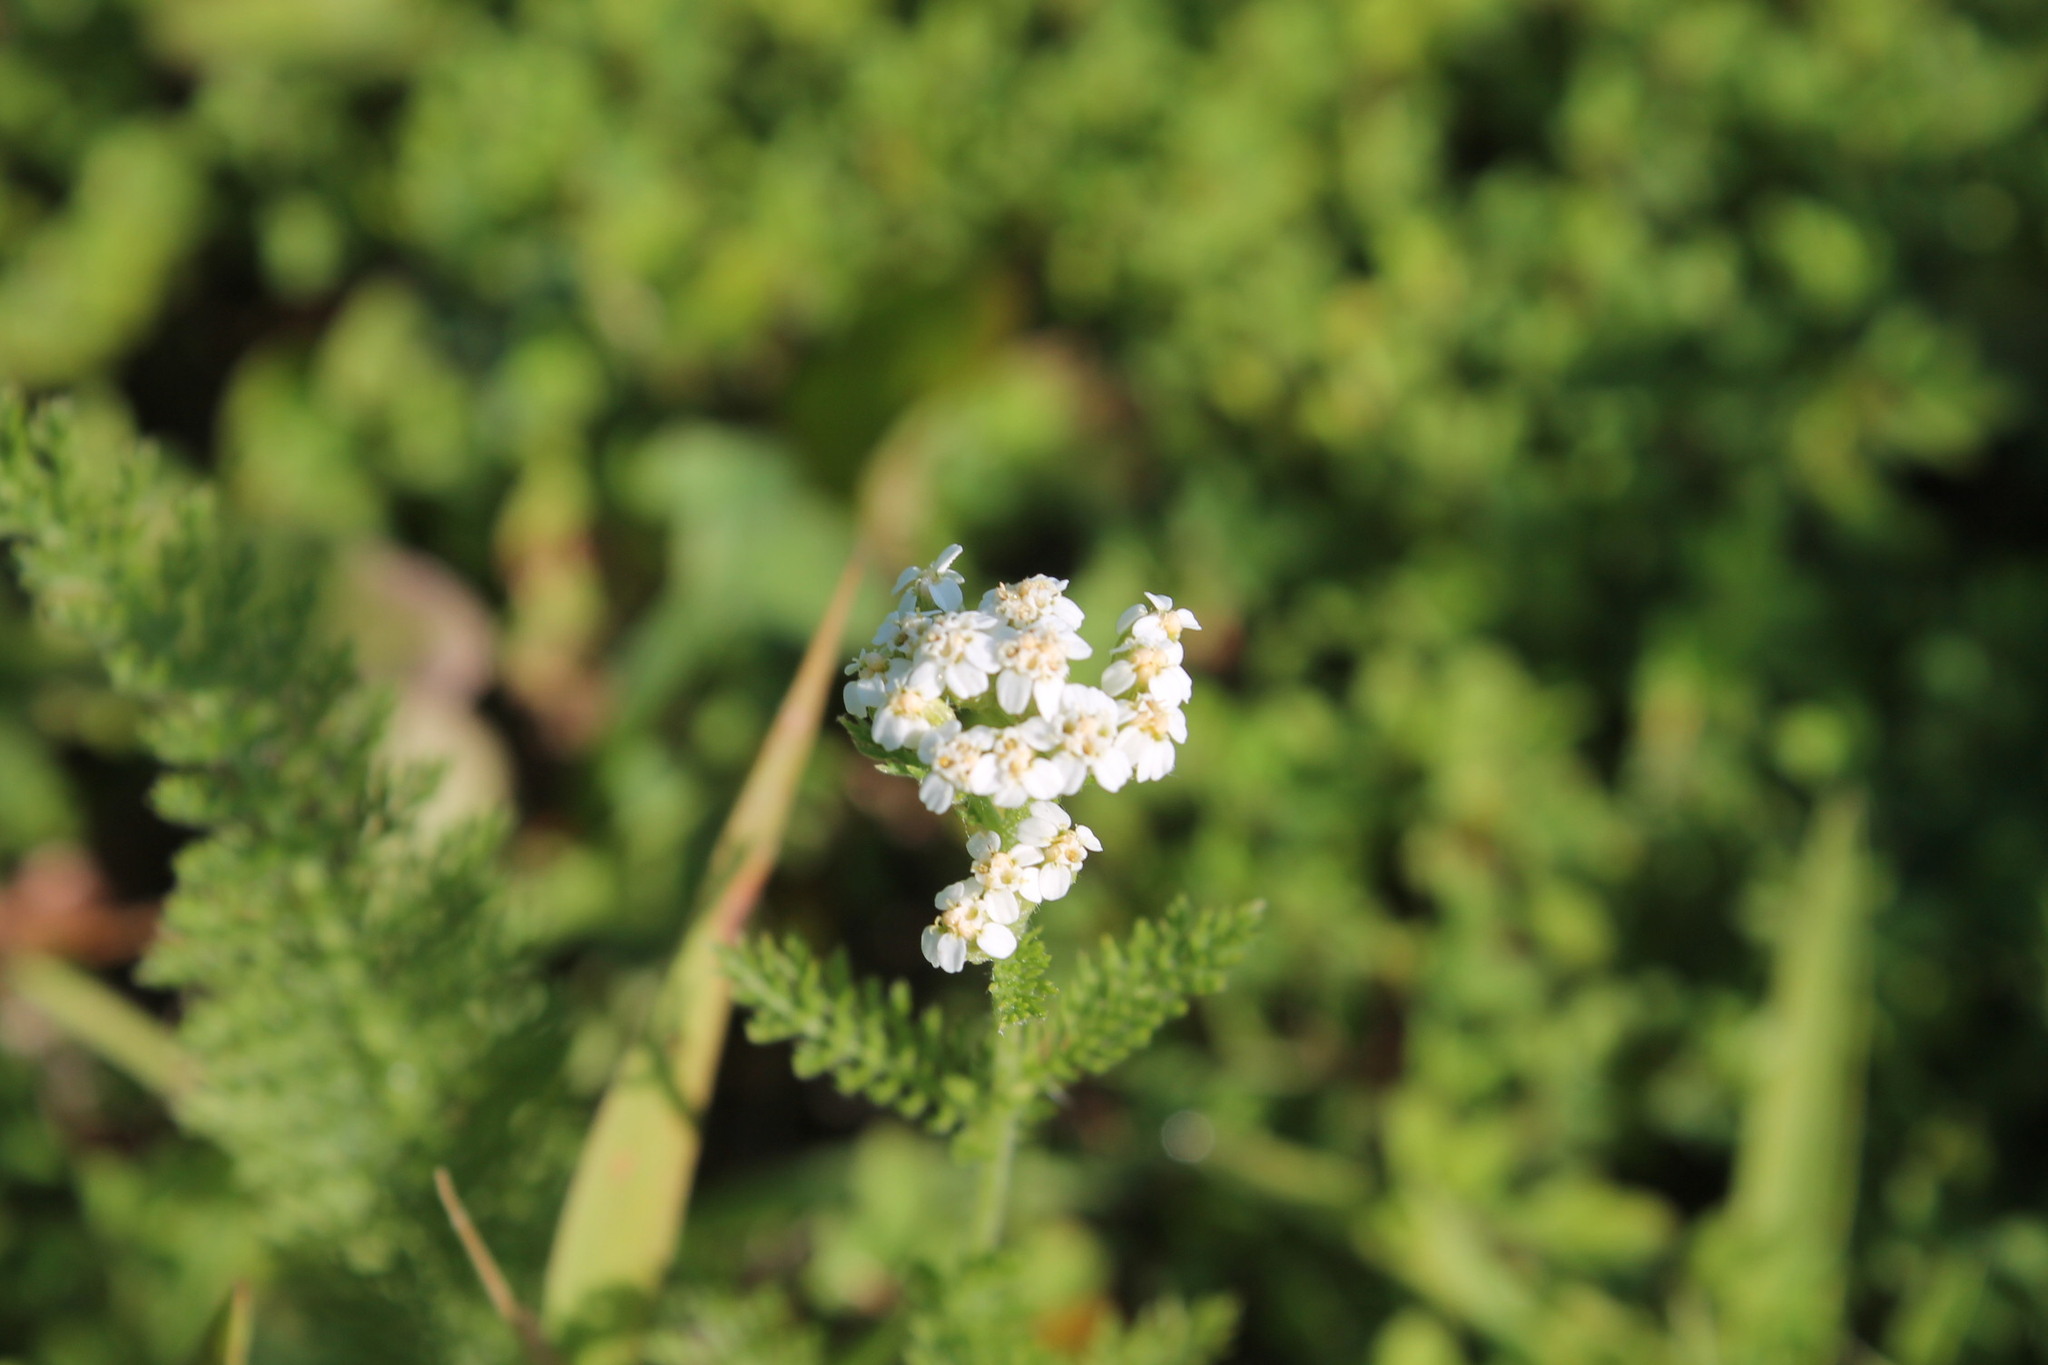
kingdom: Plantae
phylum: Tracheophyta
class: Magnoliopsida
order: Asterales
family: Asteraceae
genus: Achillea
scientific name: Achillea millefolium
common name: Yarrow
